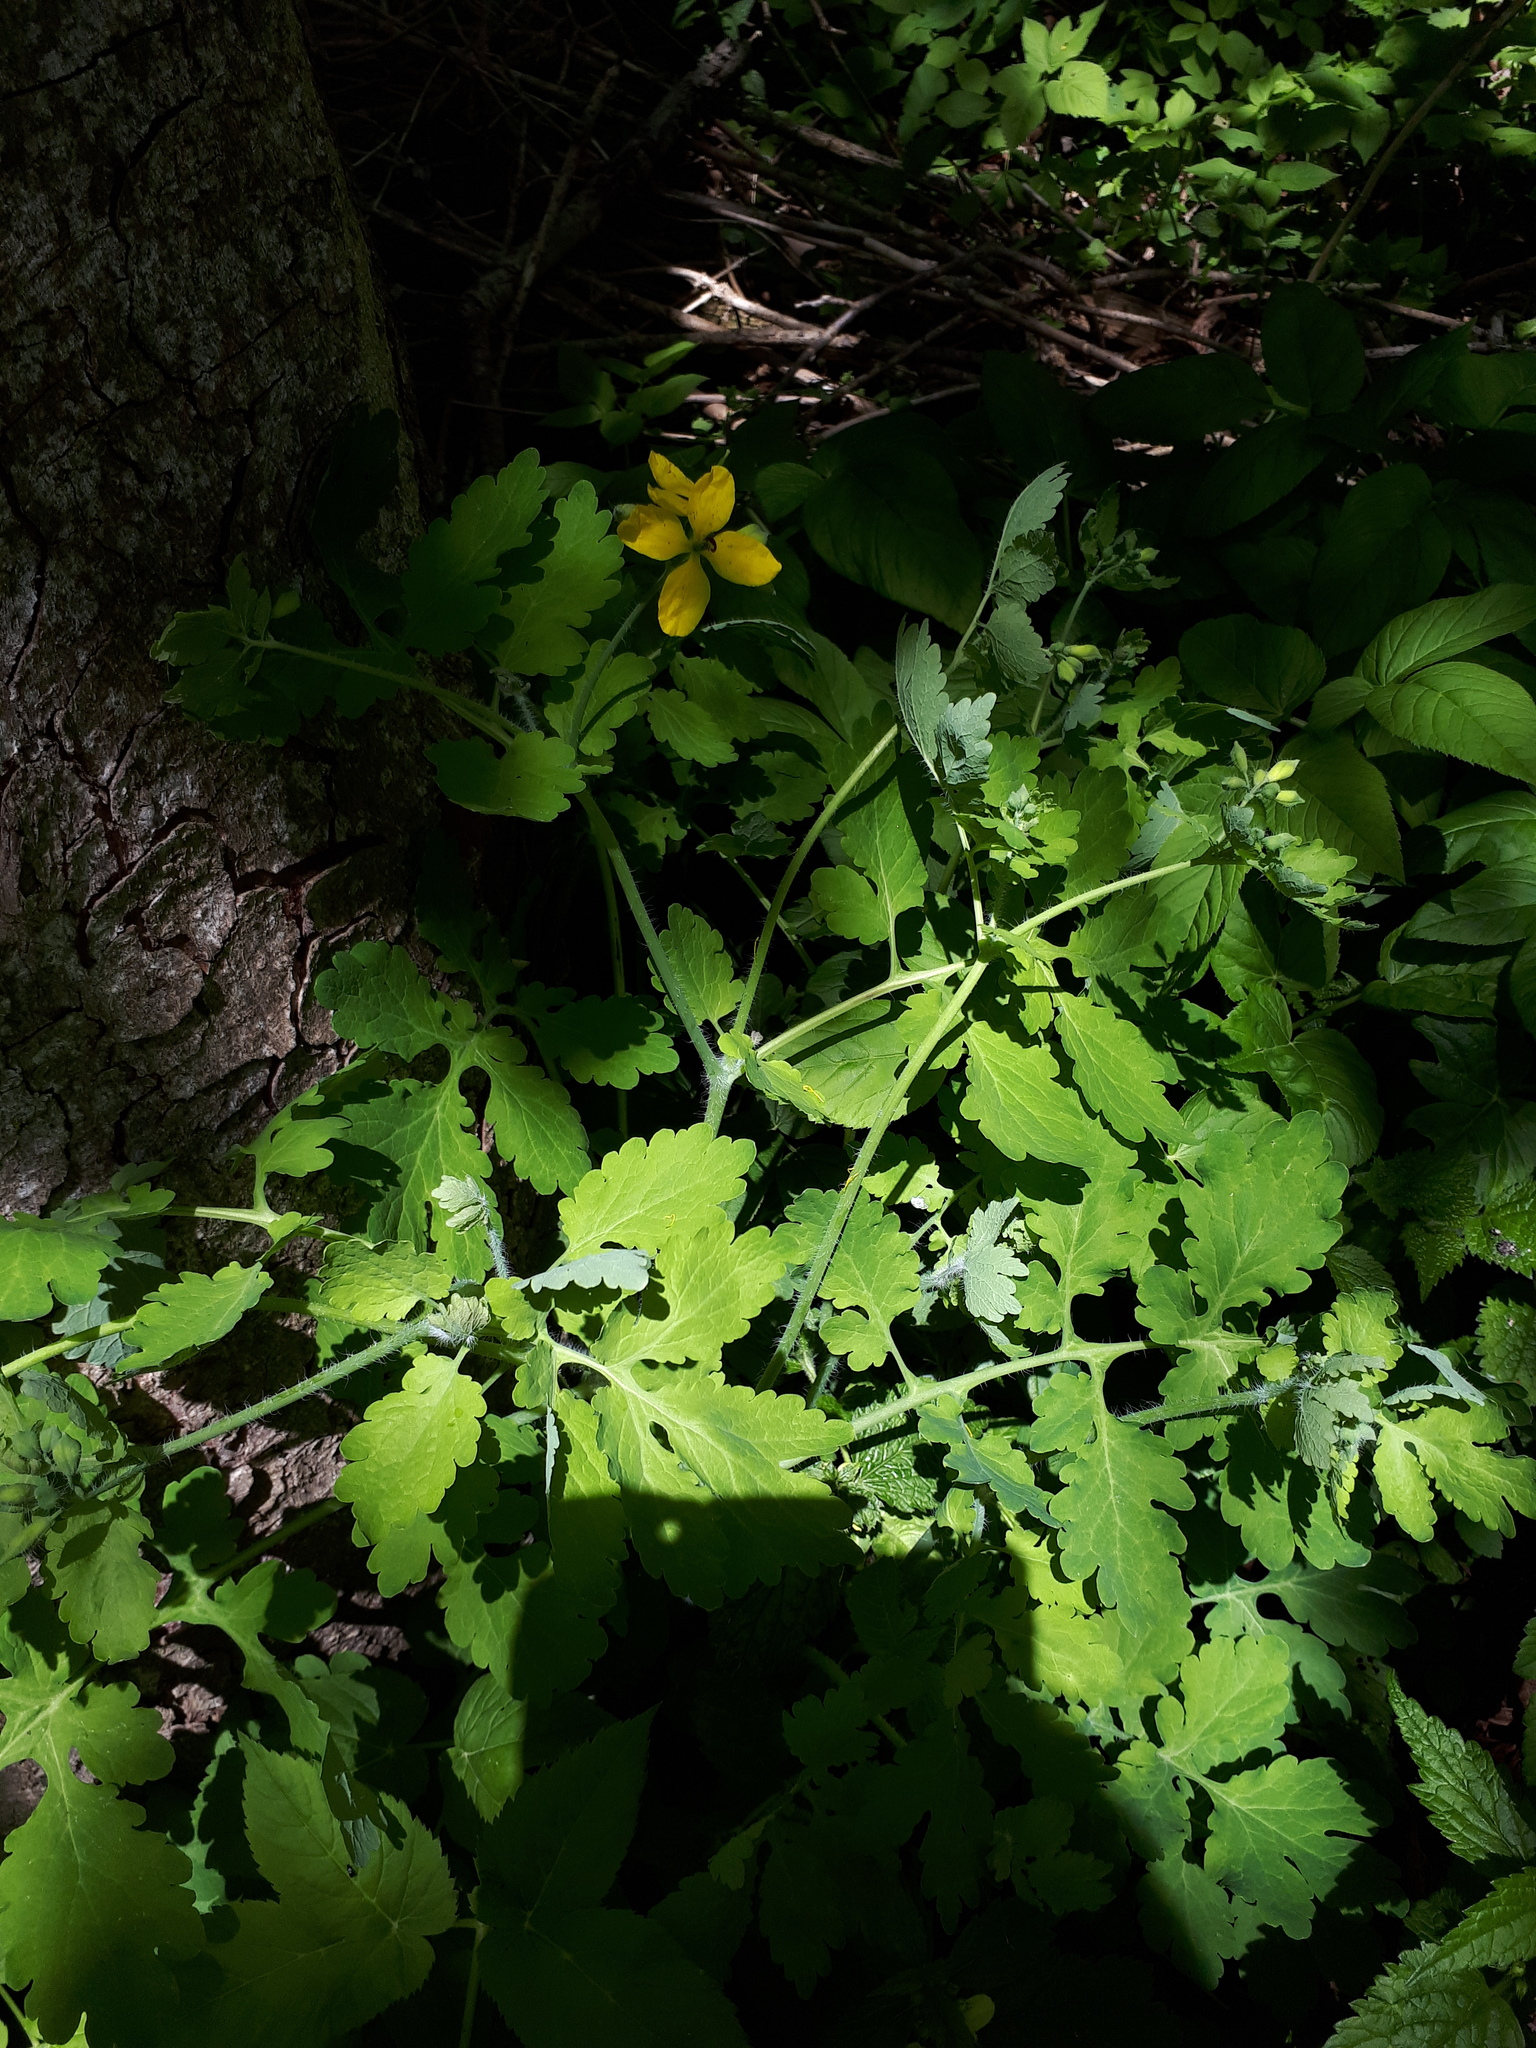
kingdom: Plantae
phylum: Tracheophyta
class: Magnoliopsida
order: Ranunculales
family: Papaveraceae
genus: Chelidonium
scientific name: Chelidonium majus
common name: Greater celandine
